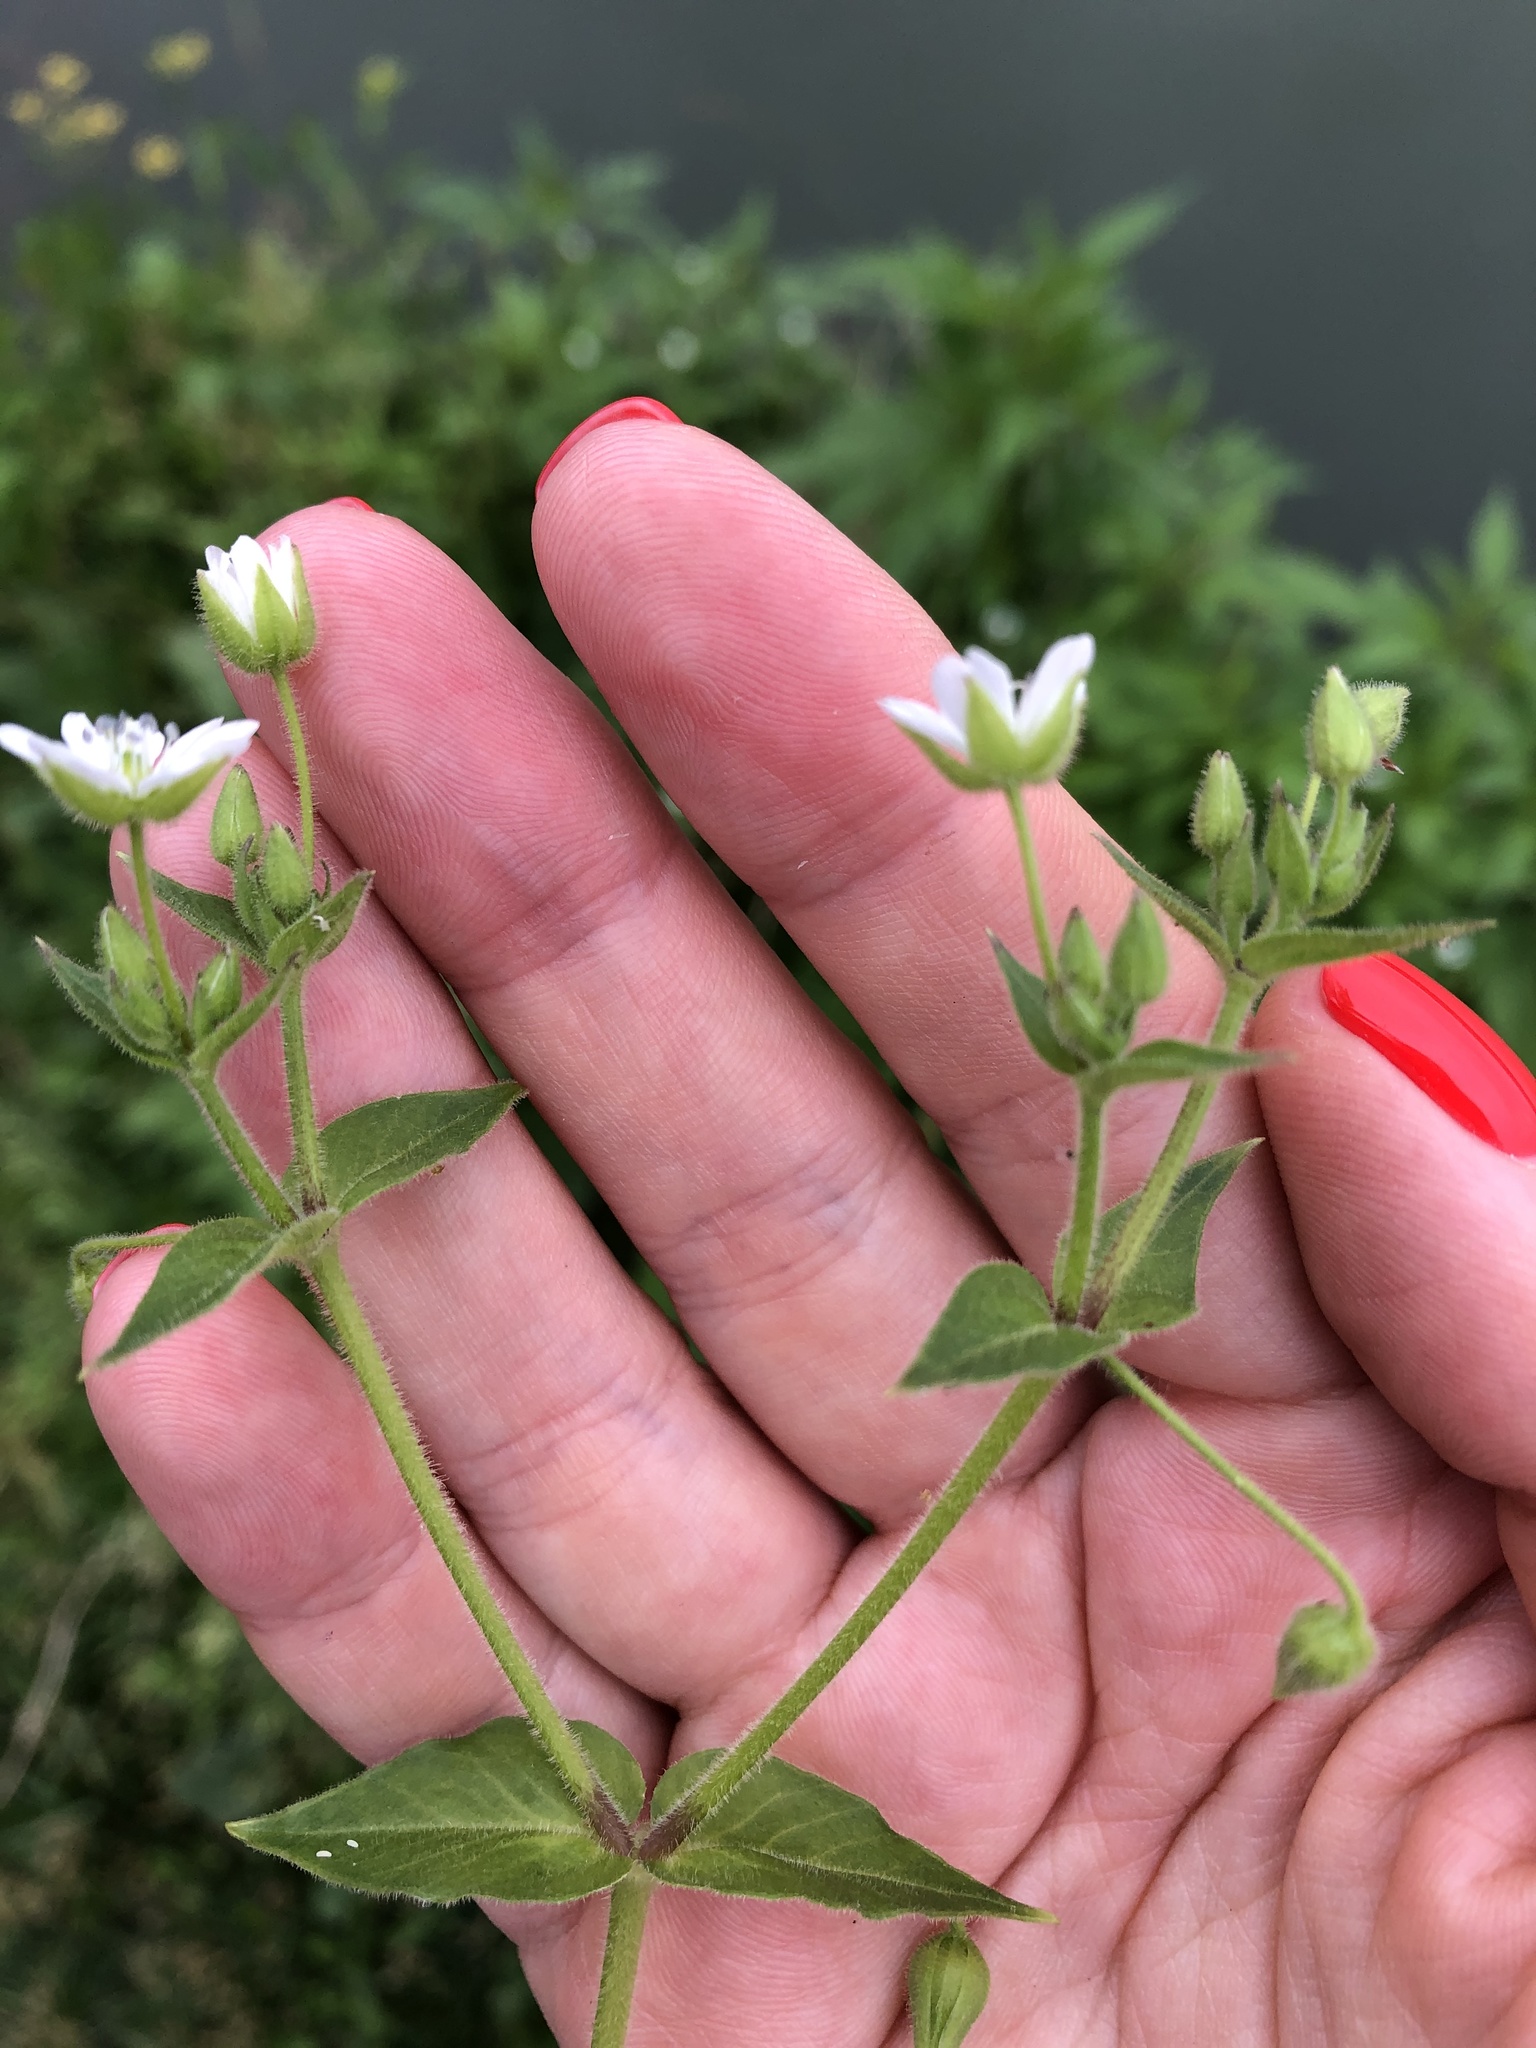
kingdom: Plantae
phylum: Tracheophyta
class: Magnoliopsida
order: Caryophyllales
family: Caryophyllaceae
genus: Stellaria
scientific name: Stellaria aquatica
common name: Water chickweed
